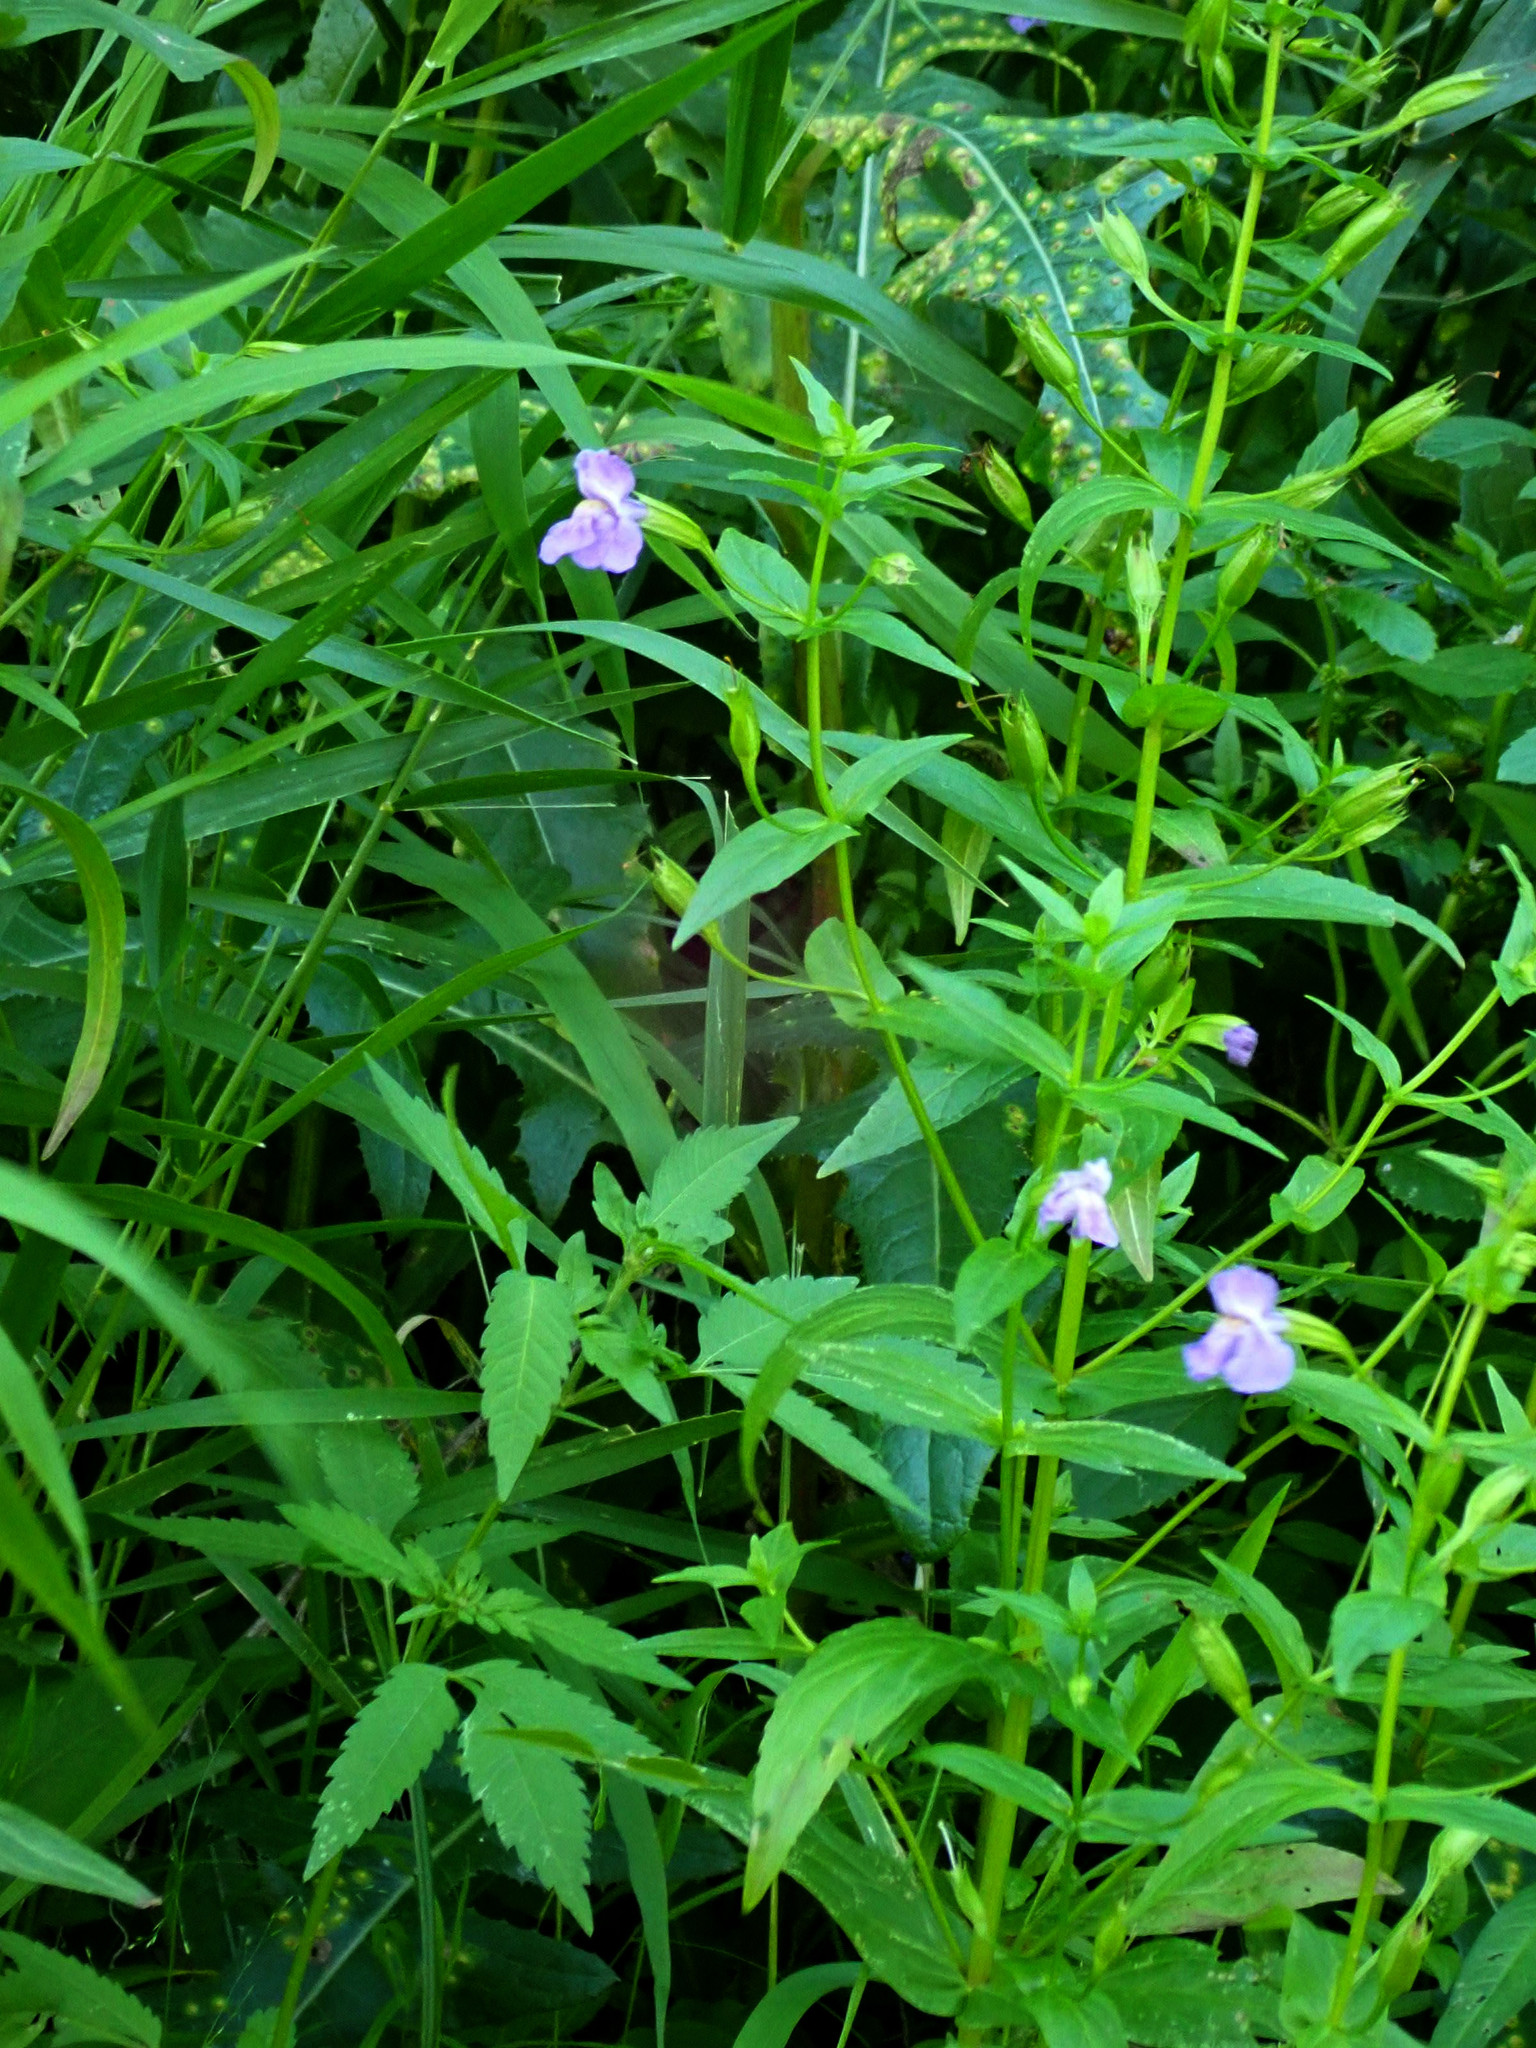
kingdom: Plantae
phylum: Tracheophyta
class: Magnoliopsida
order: Lamiales
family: Phrymaceae
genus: Mimulus
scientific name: Mimulus ringens
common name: Allegheny monkeyflower
